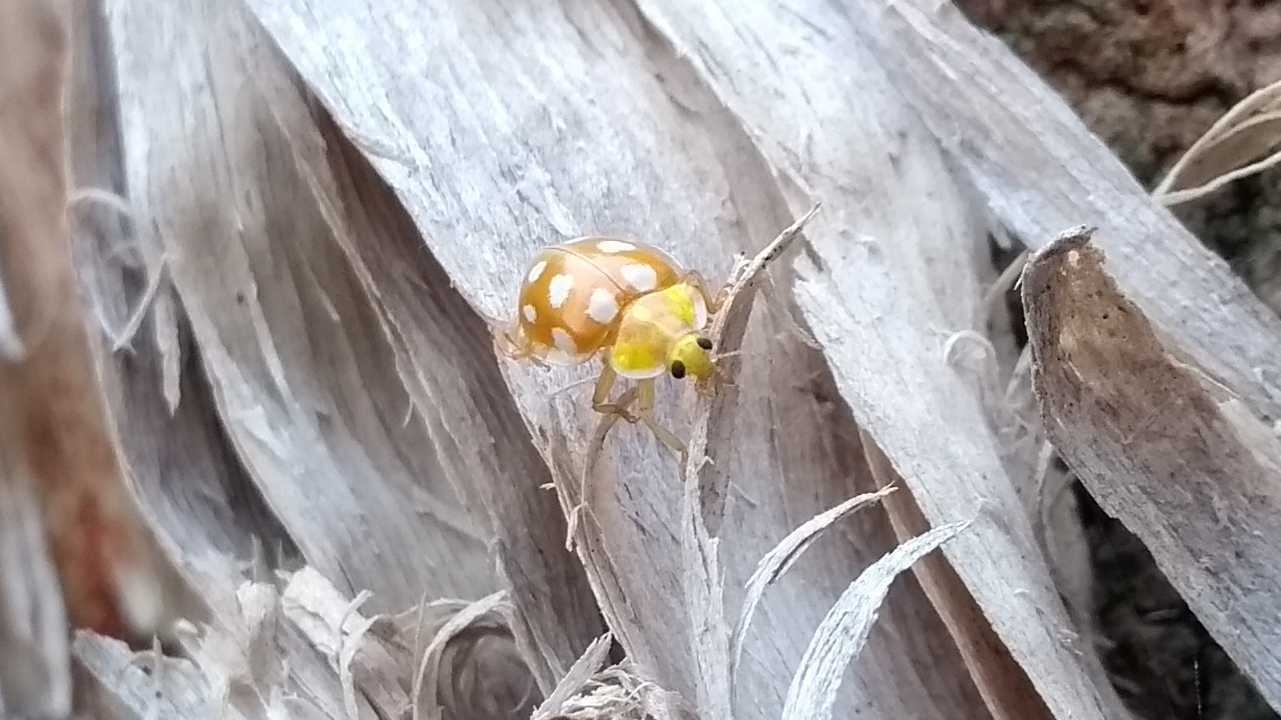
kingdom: Animalia
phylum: Arthropoda
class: Insecta
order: Coleoptera
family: Coccinellidae
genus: Halyzia
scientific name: Halyzia sedecimguttata
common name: Orange ladybird
